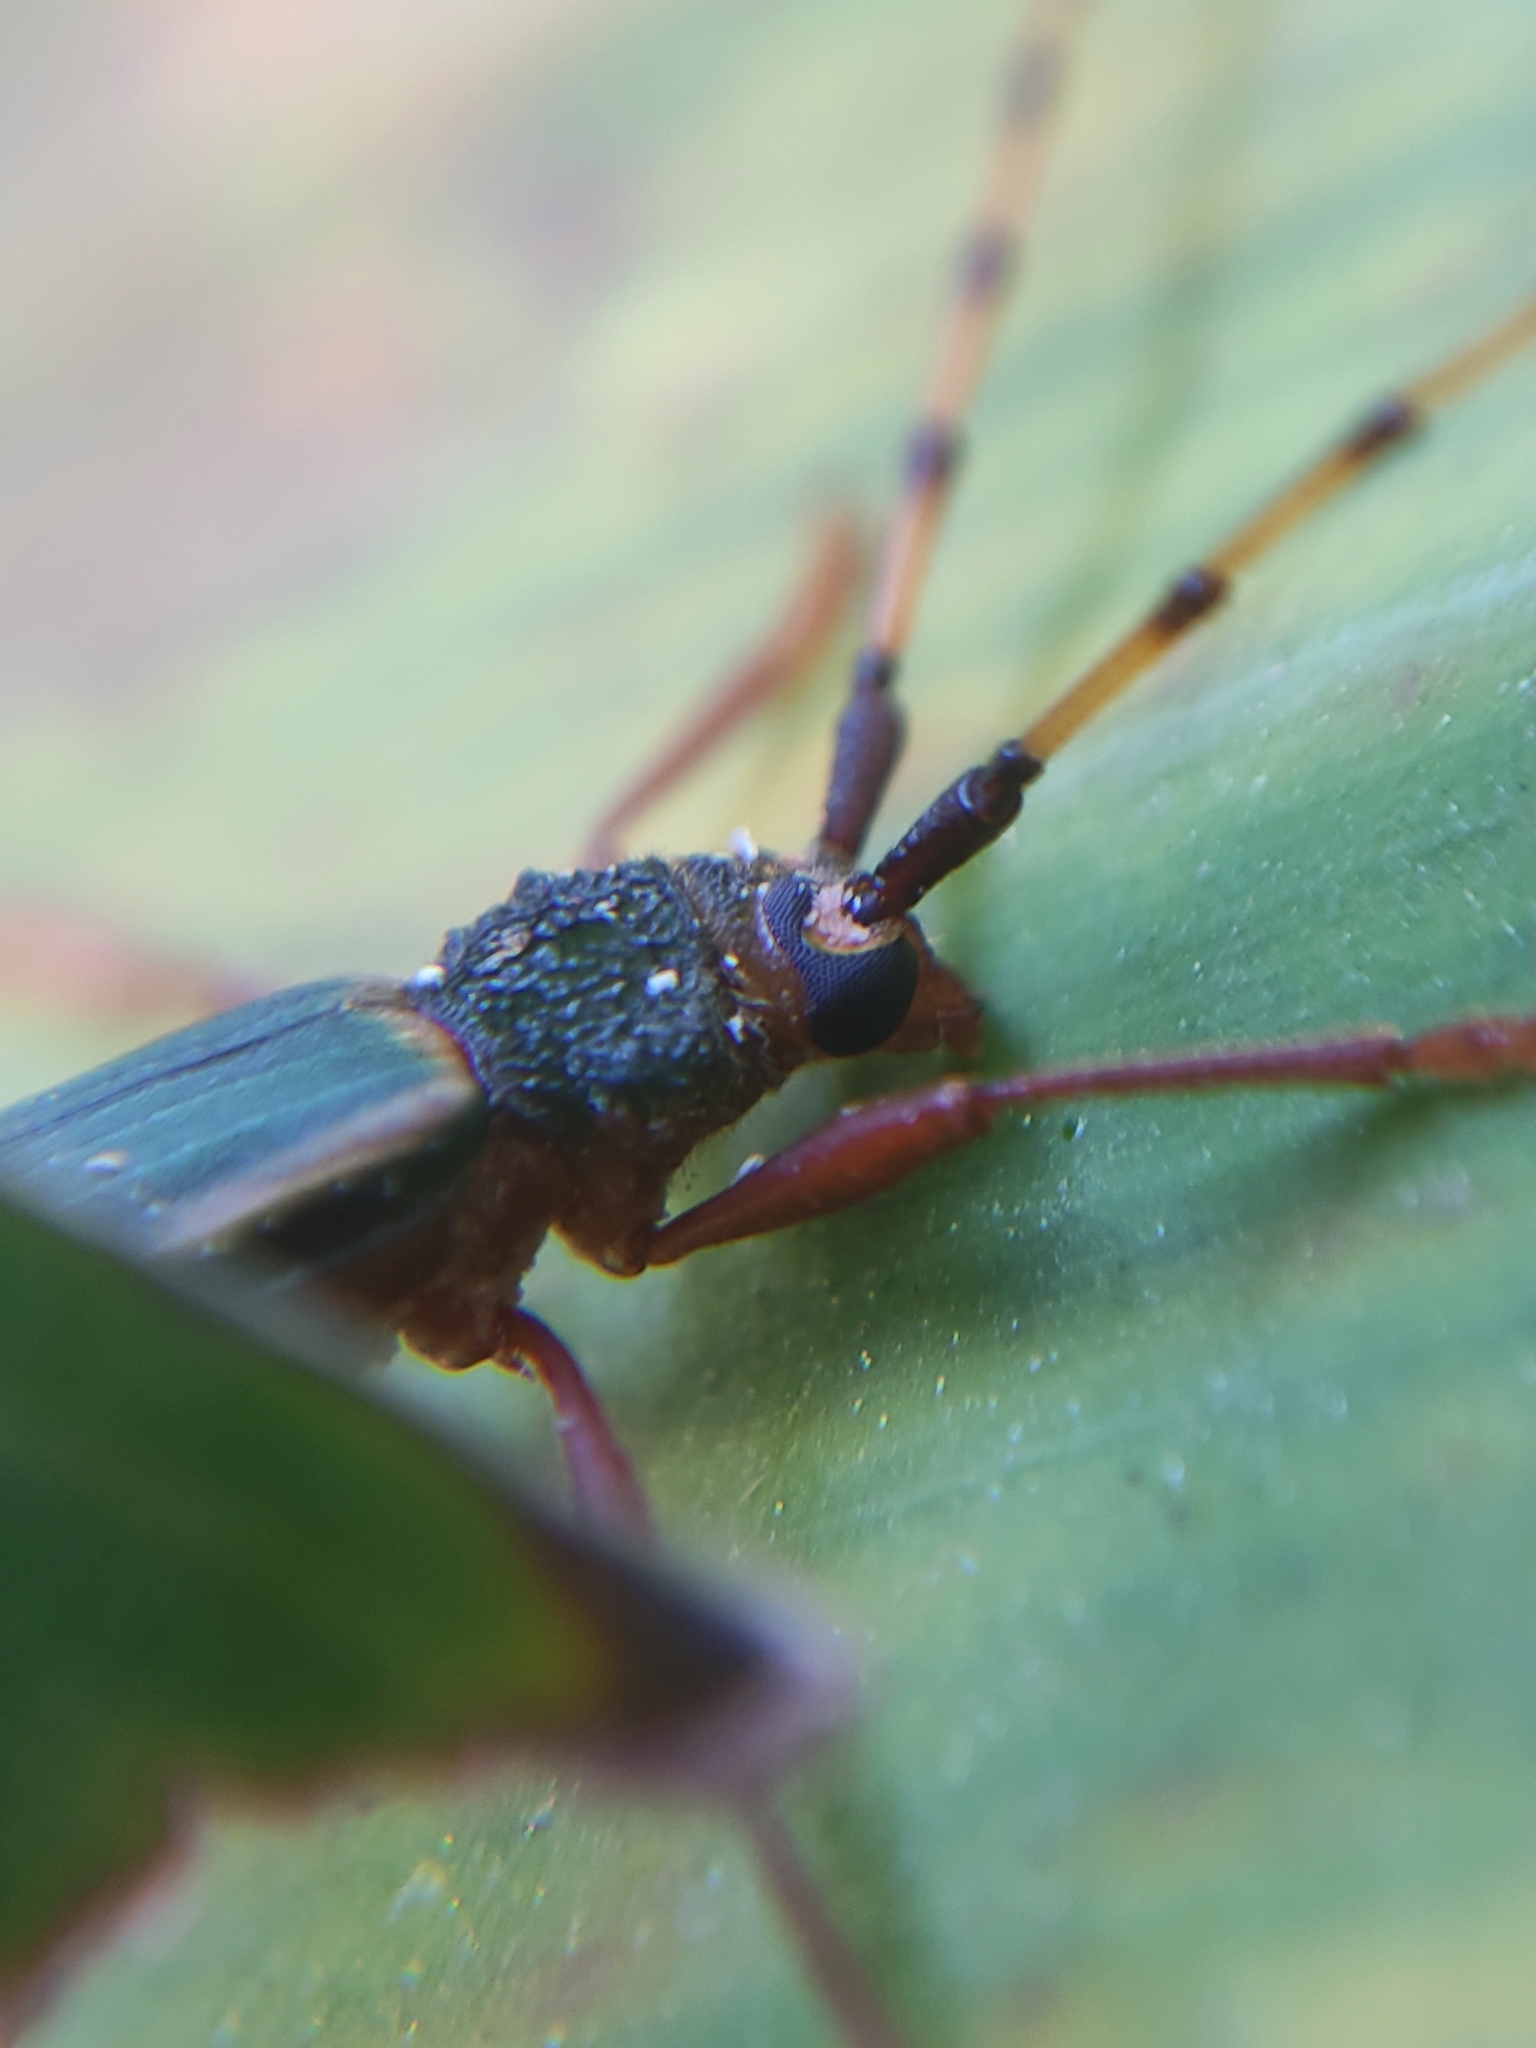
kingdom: Animalia
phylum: Arthropoda
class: Insecta
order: Coleoptera
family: Cerambycidae
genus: Chlorida
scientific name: Chlorida costata
